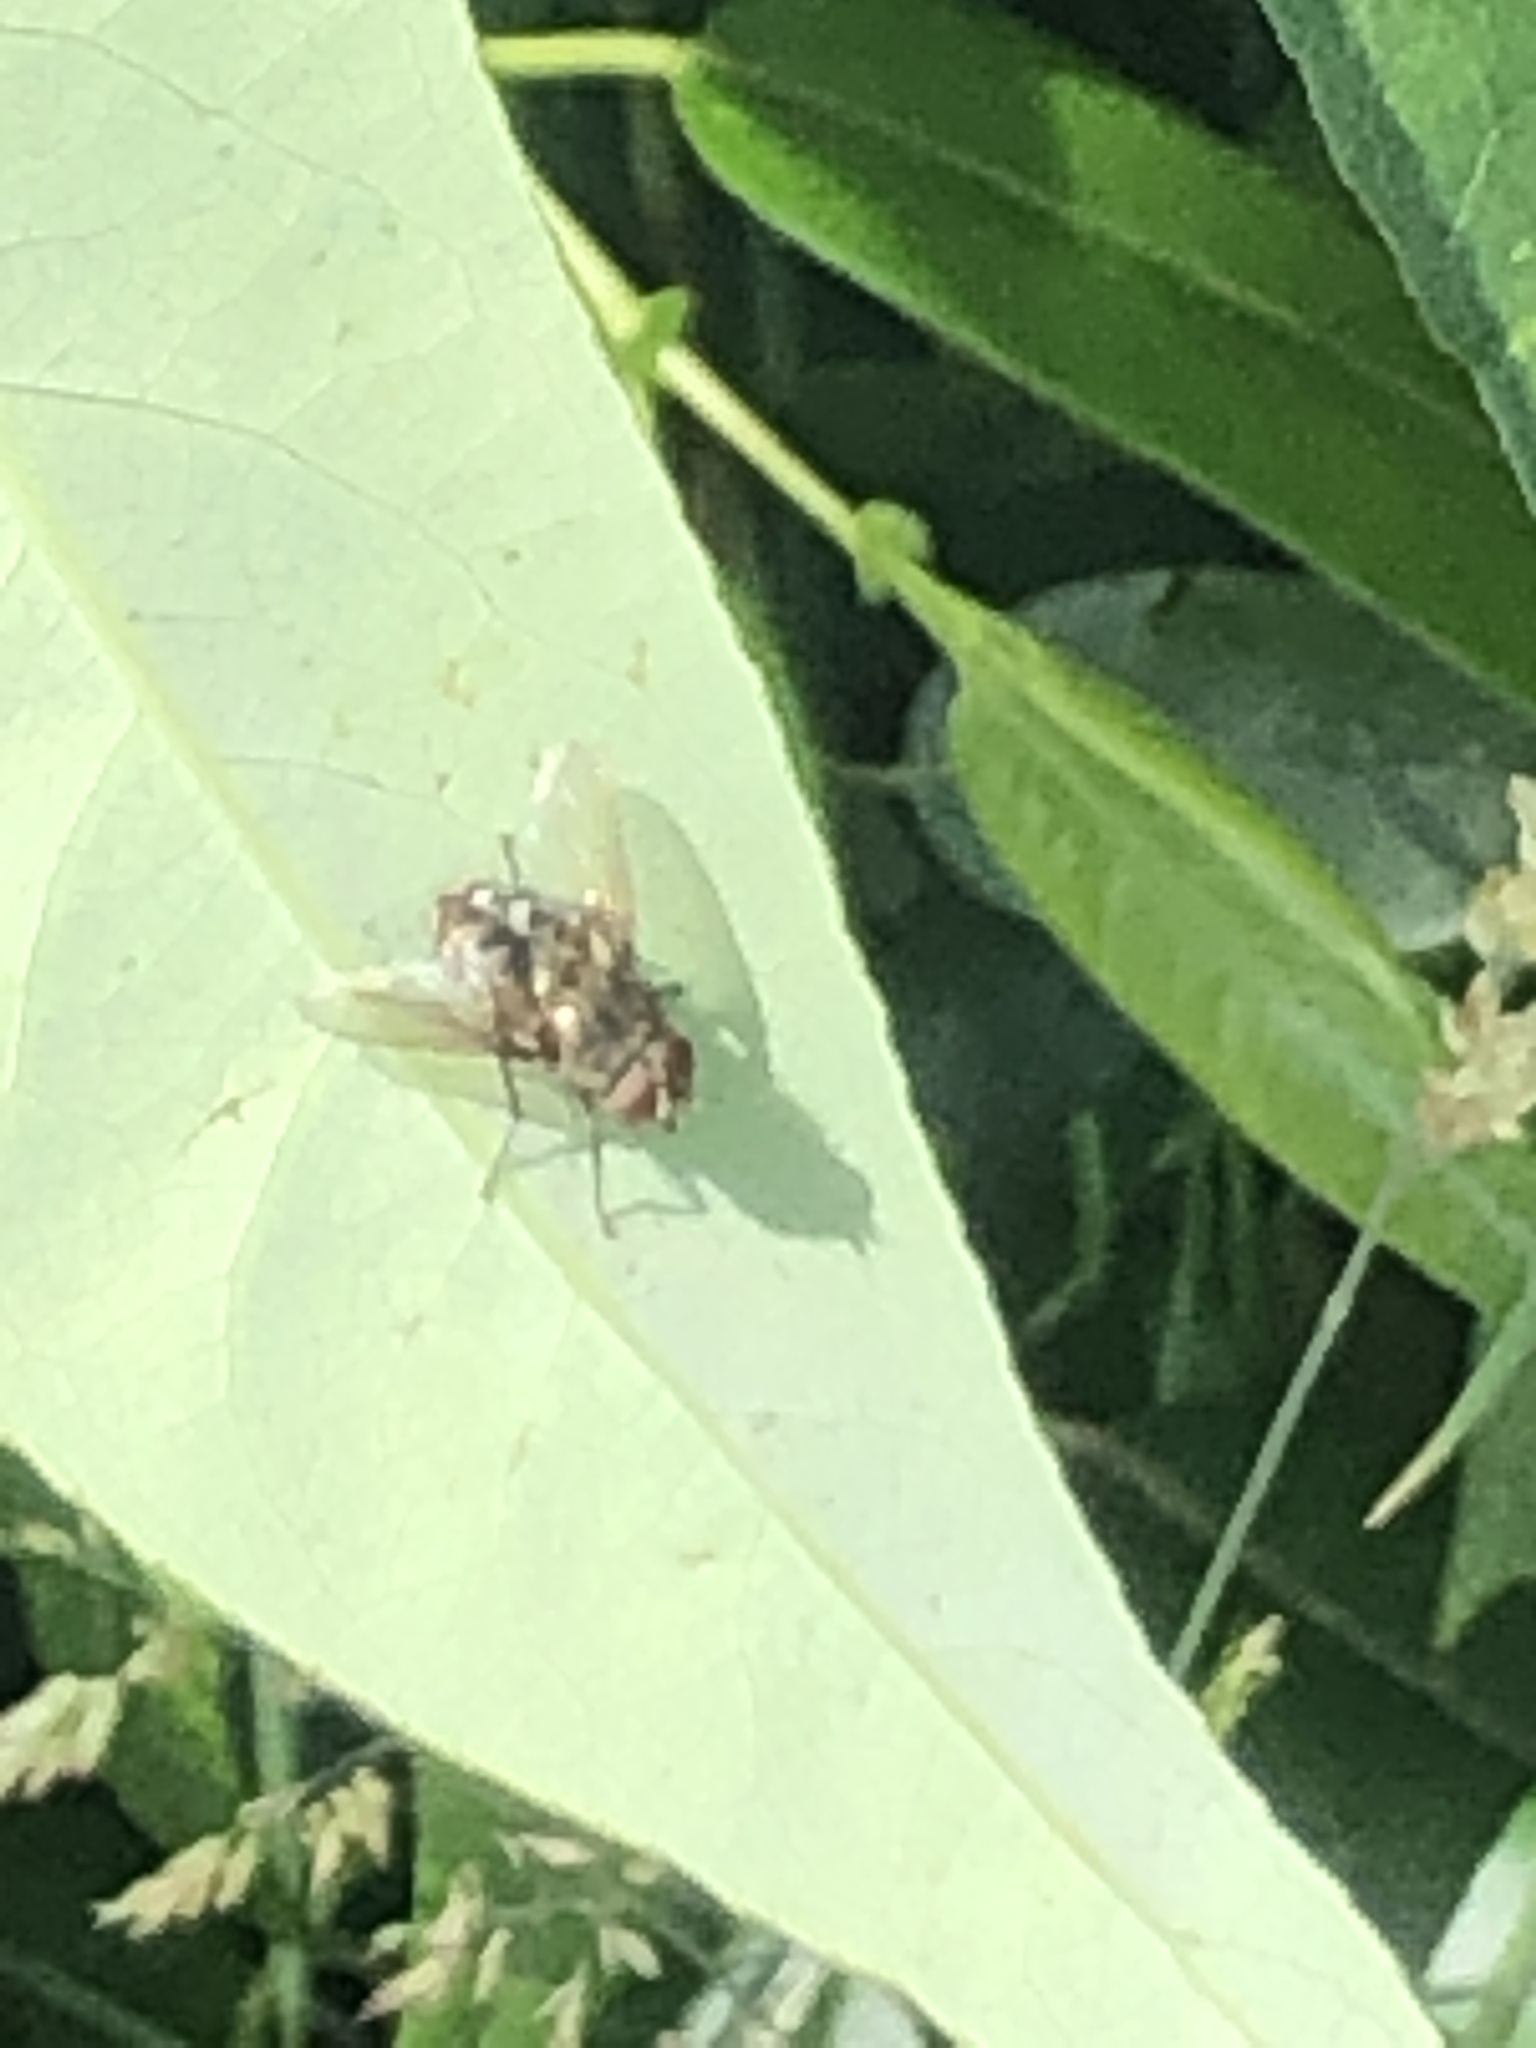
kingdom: Animalia
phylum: Arthropoda
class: Insecta
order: Diptera
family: Polleniidae
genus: Pollenia
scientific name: Pollenia
